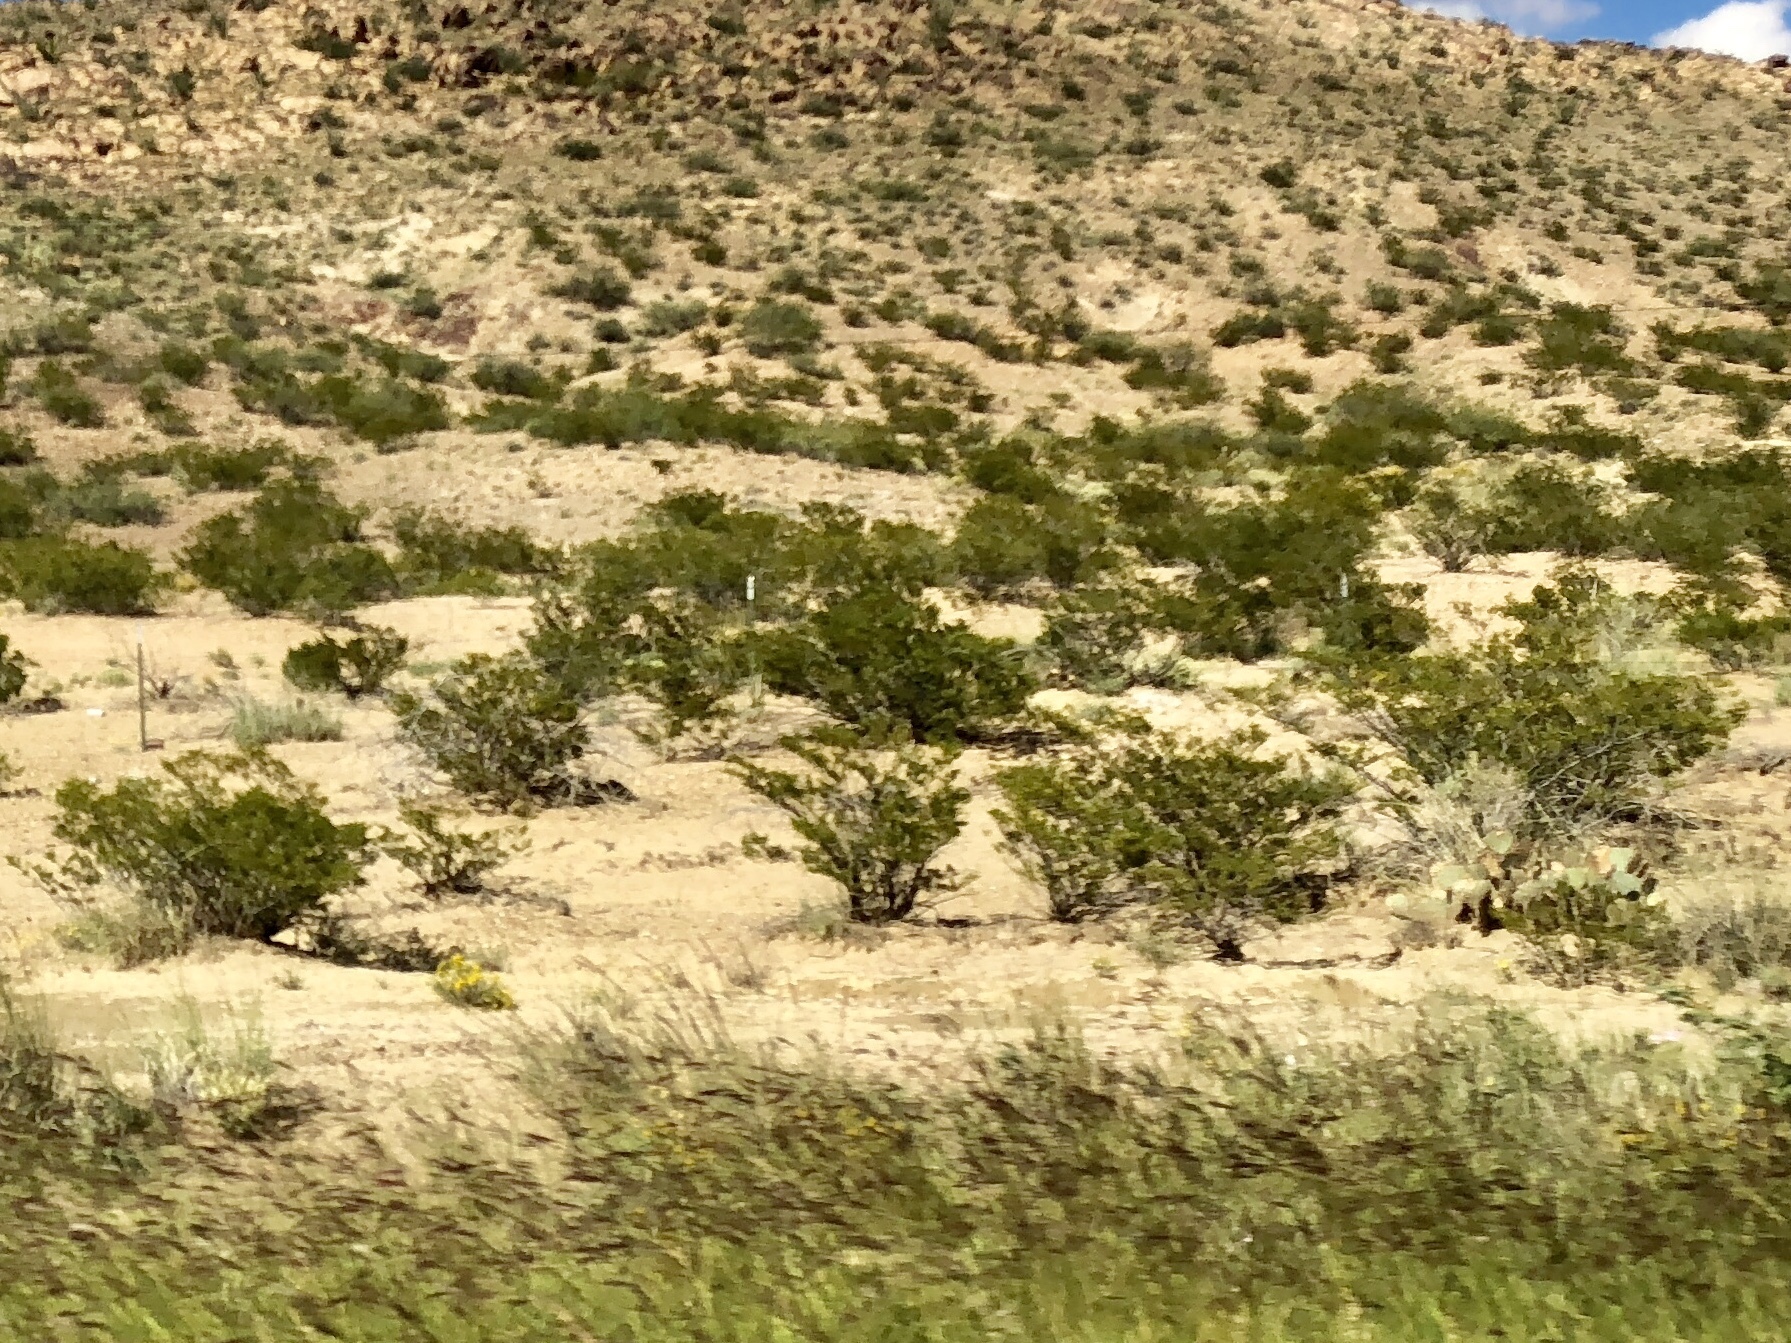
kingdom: Plantae
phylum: Tracheophyta
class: Magnoliopsida
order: Zygophyllales
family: Zygophyllaceae
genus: Larrea
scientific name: Larrea tridentata
